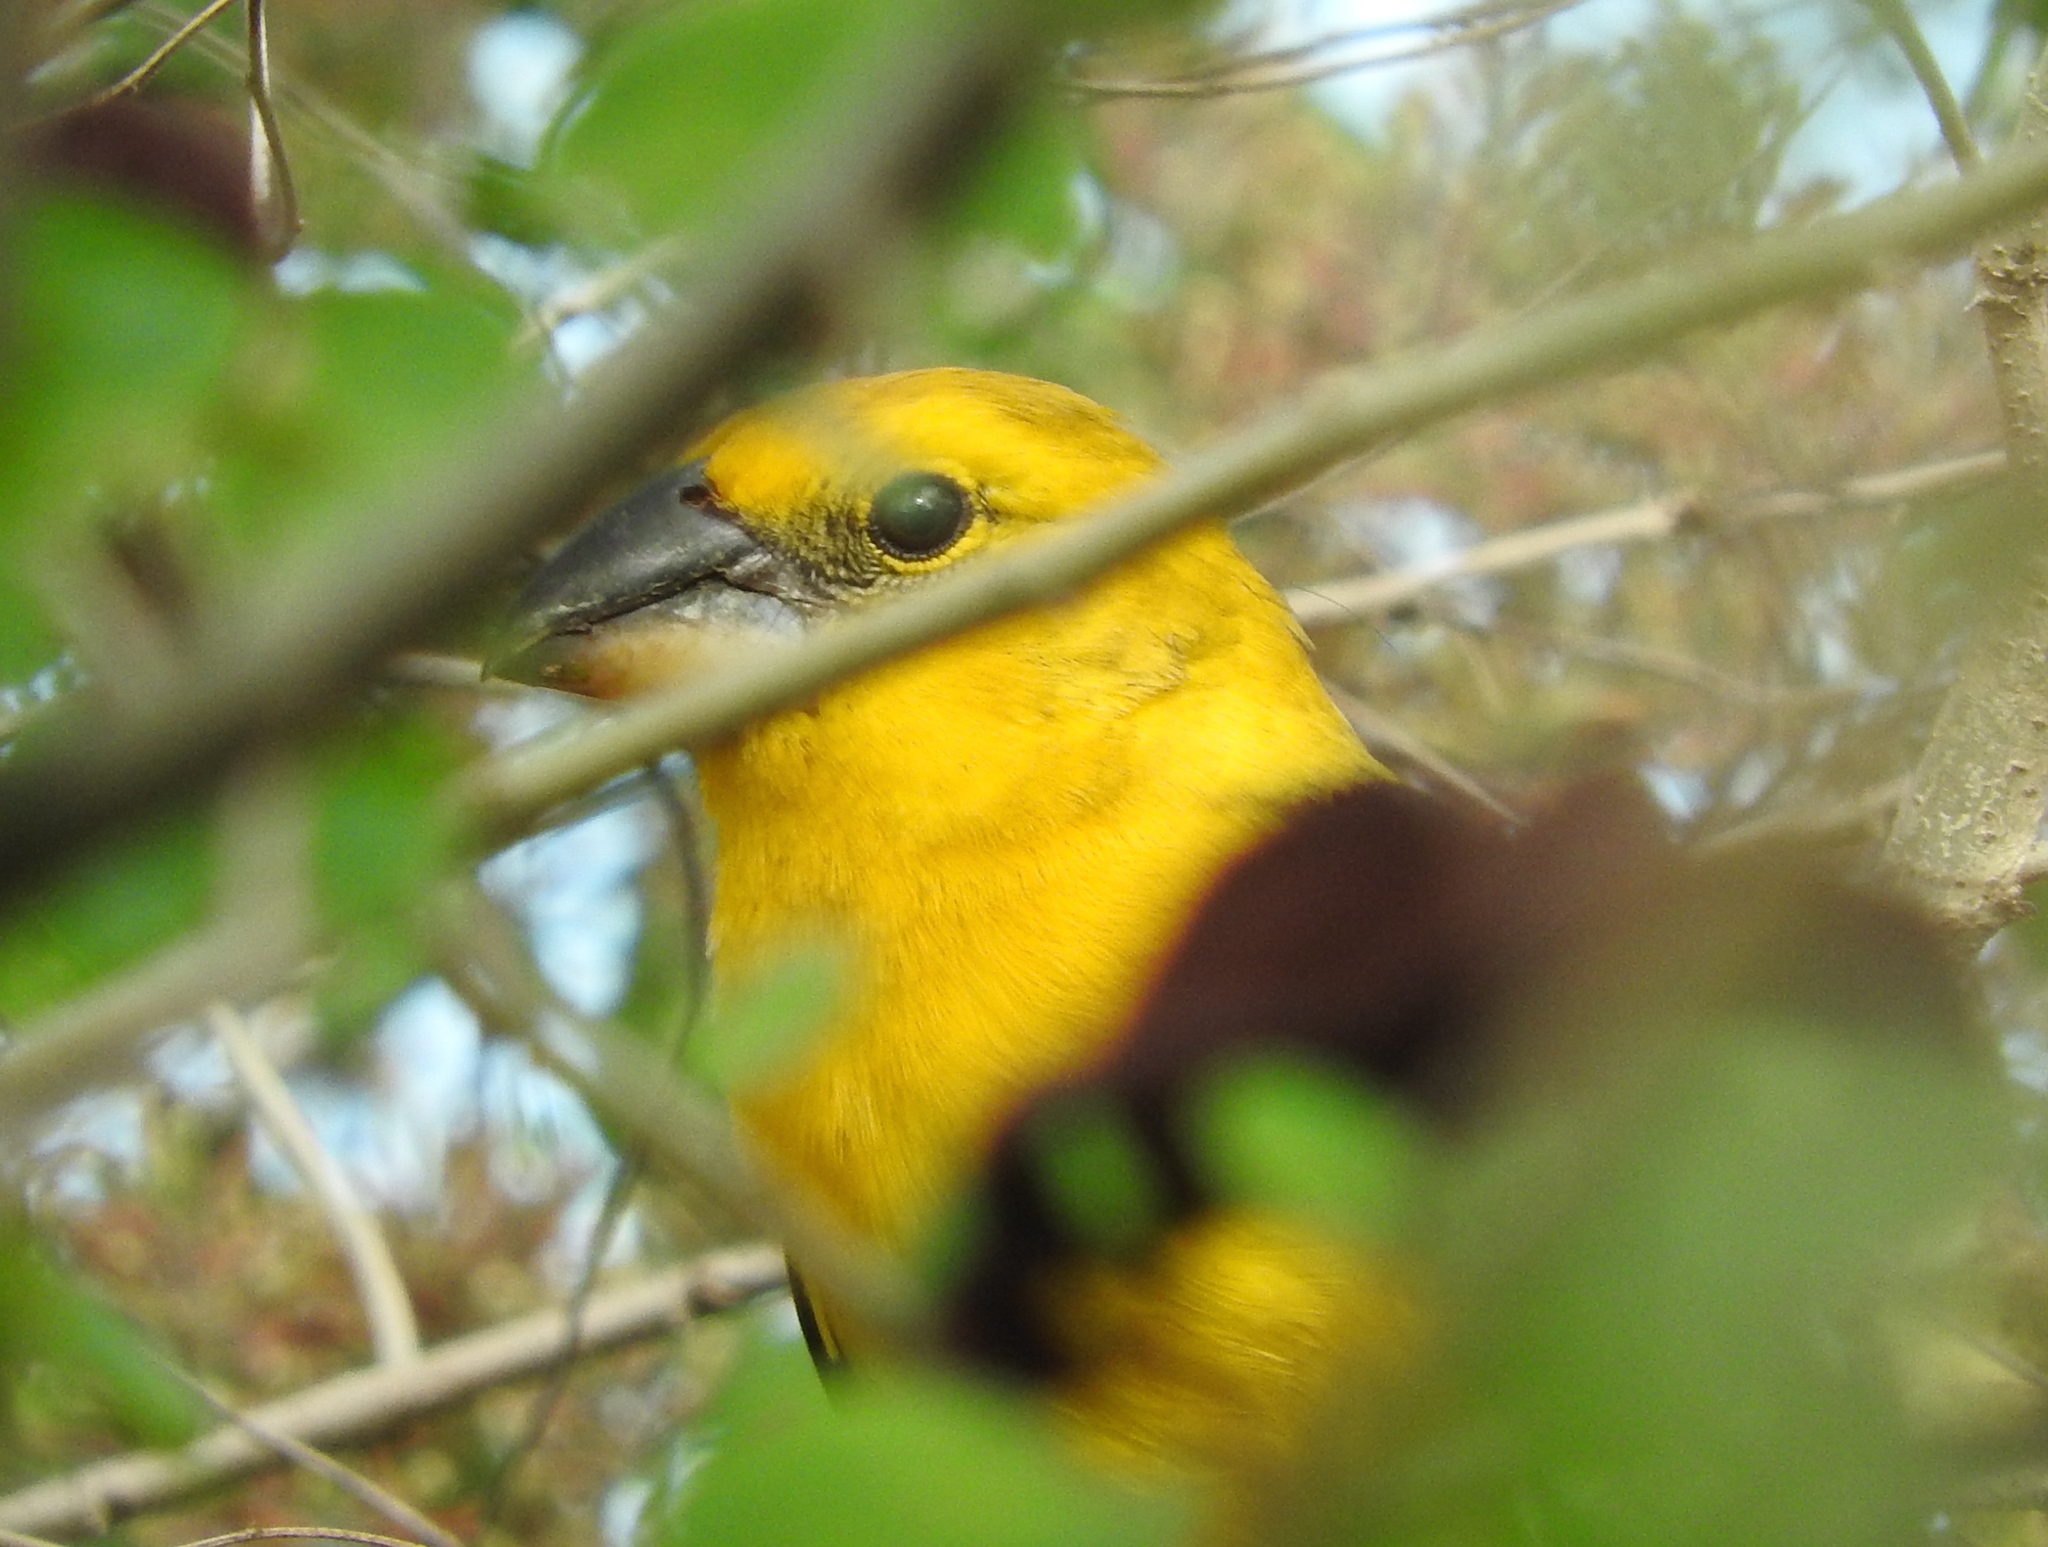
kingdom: Animalia
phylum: Chordata
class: Aves
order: Passeriformes
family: Cardinalidae
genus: Pheucticus
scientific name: Pheucticus chrysopeplus
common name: Yellow grosbeak
